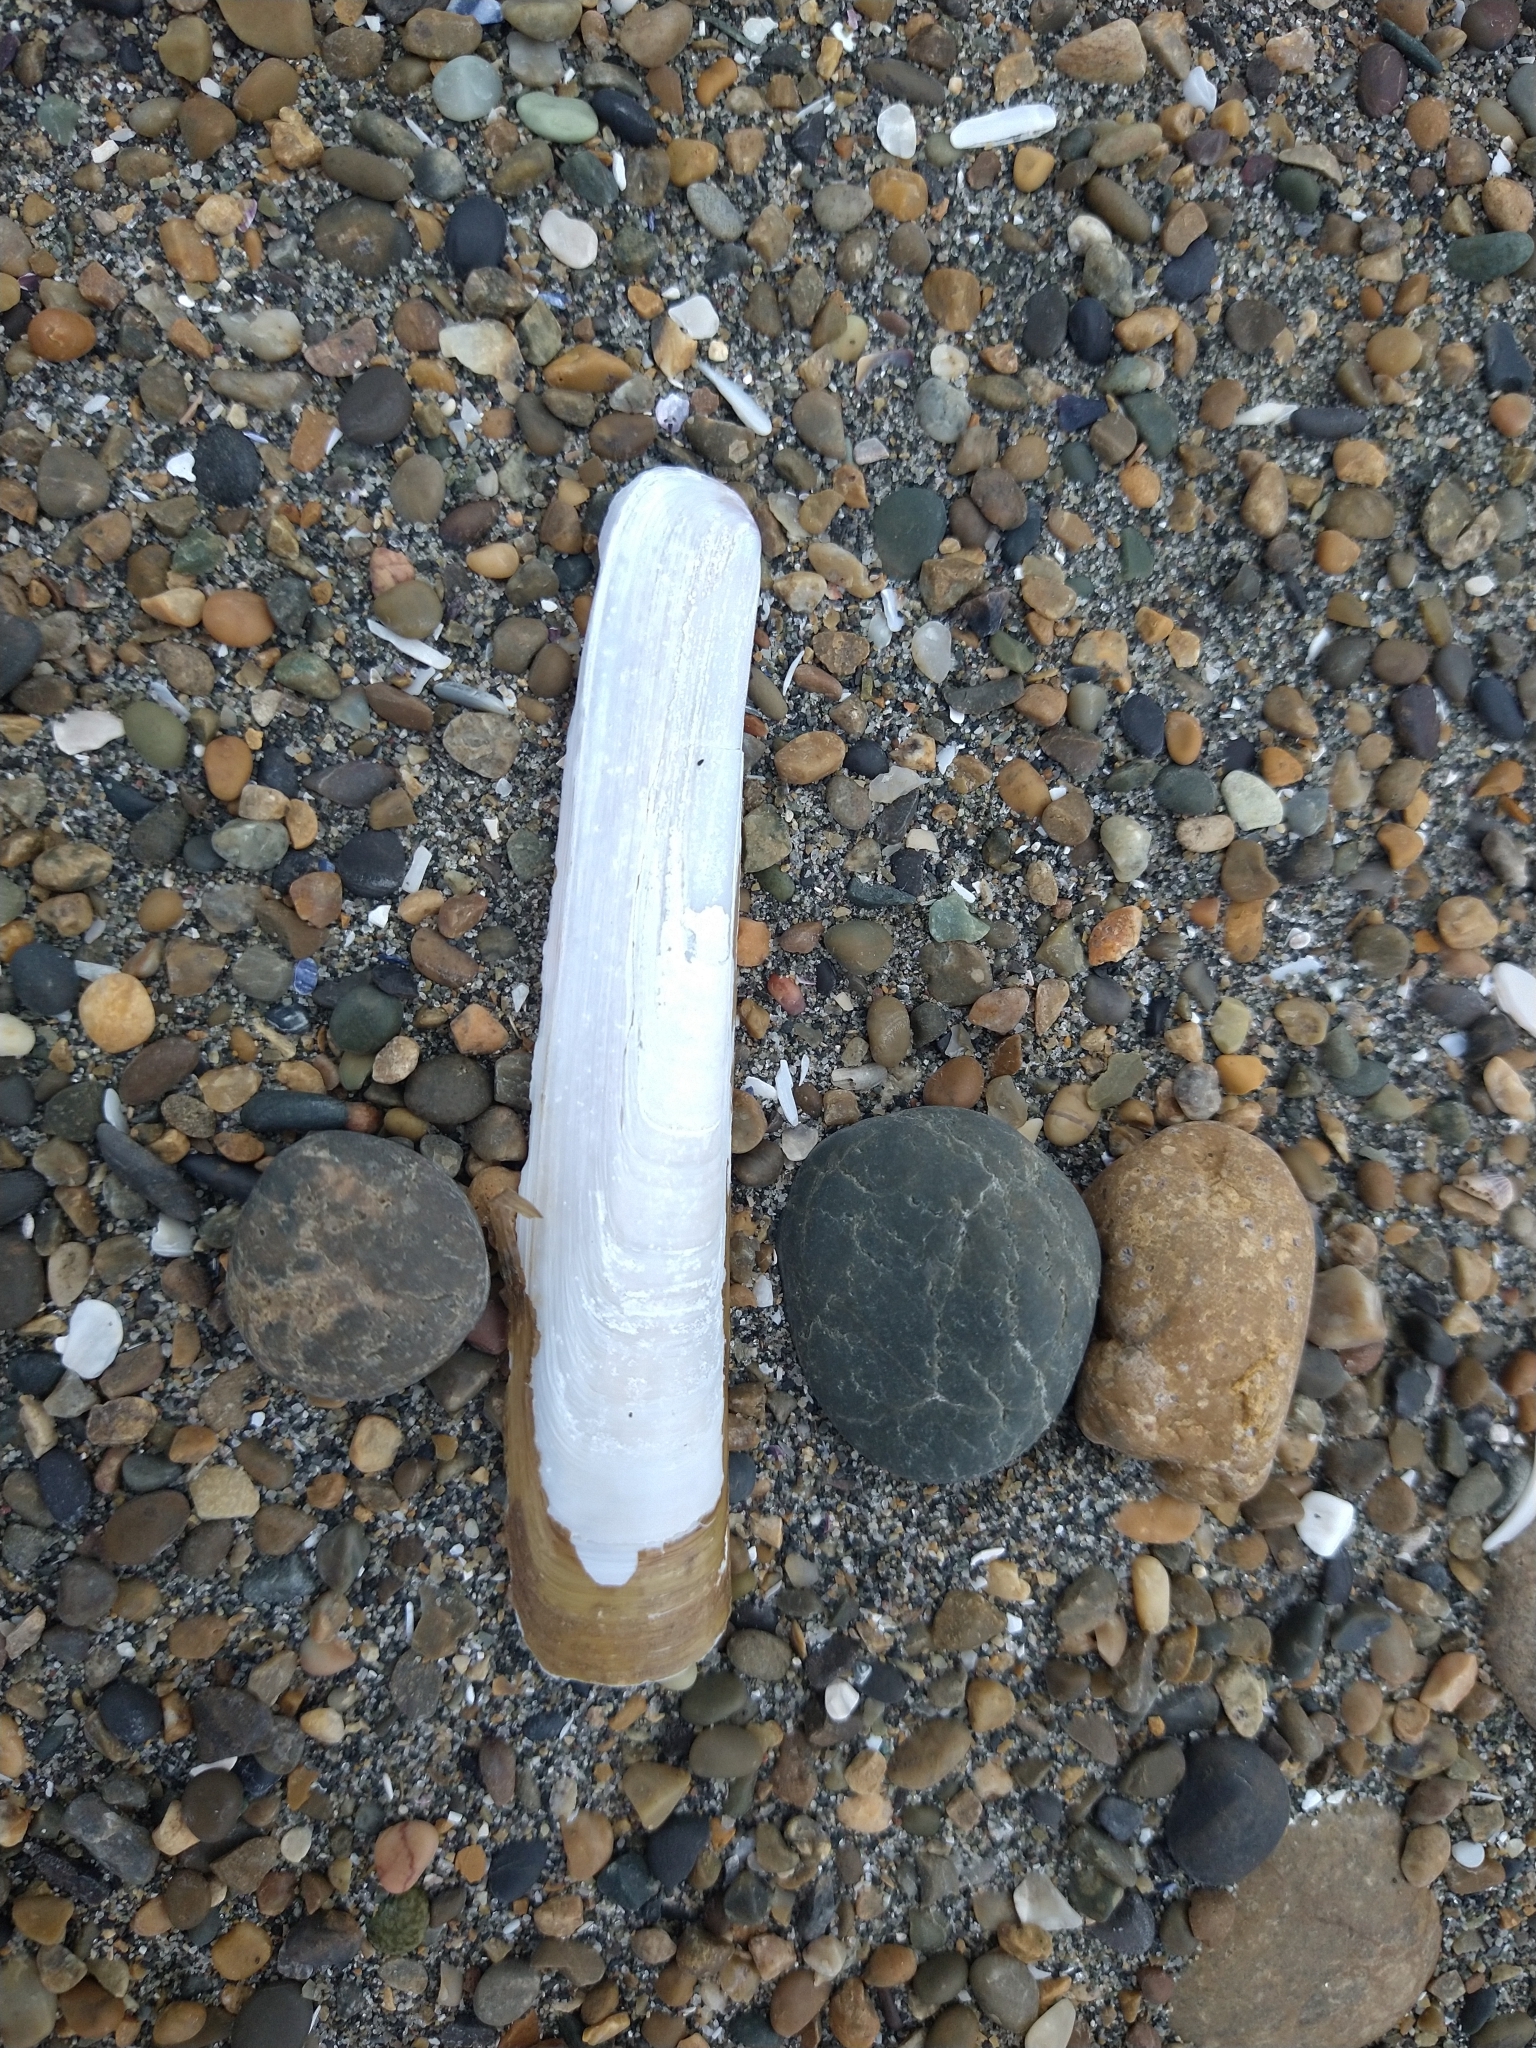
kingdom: Animalia
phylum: Mollusca
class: Bivalvia
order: Adapedonta
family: Pharidae
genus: Ensis
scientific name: Ensis macha
